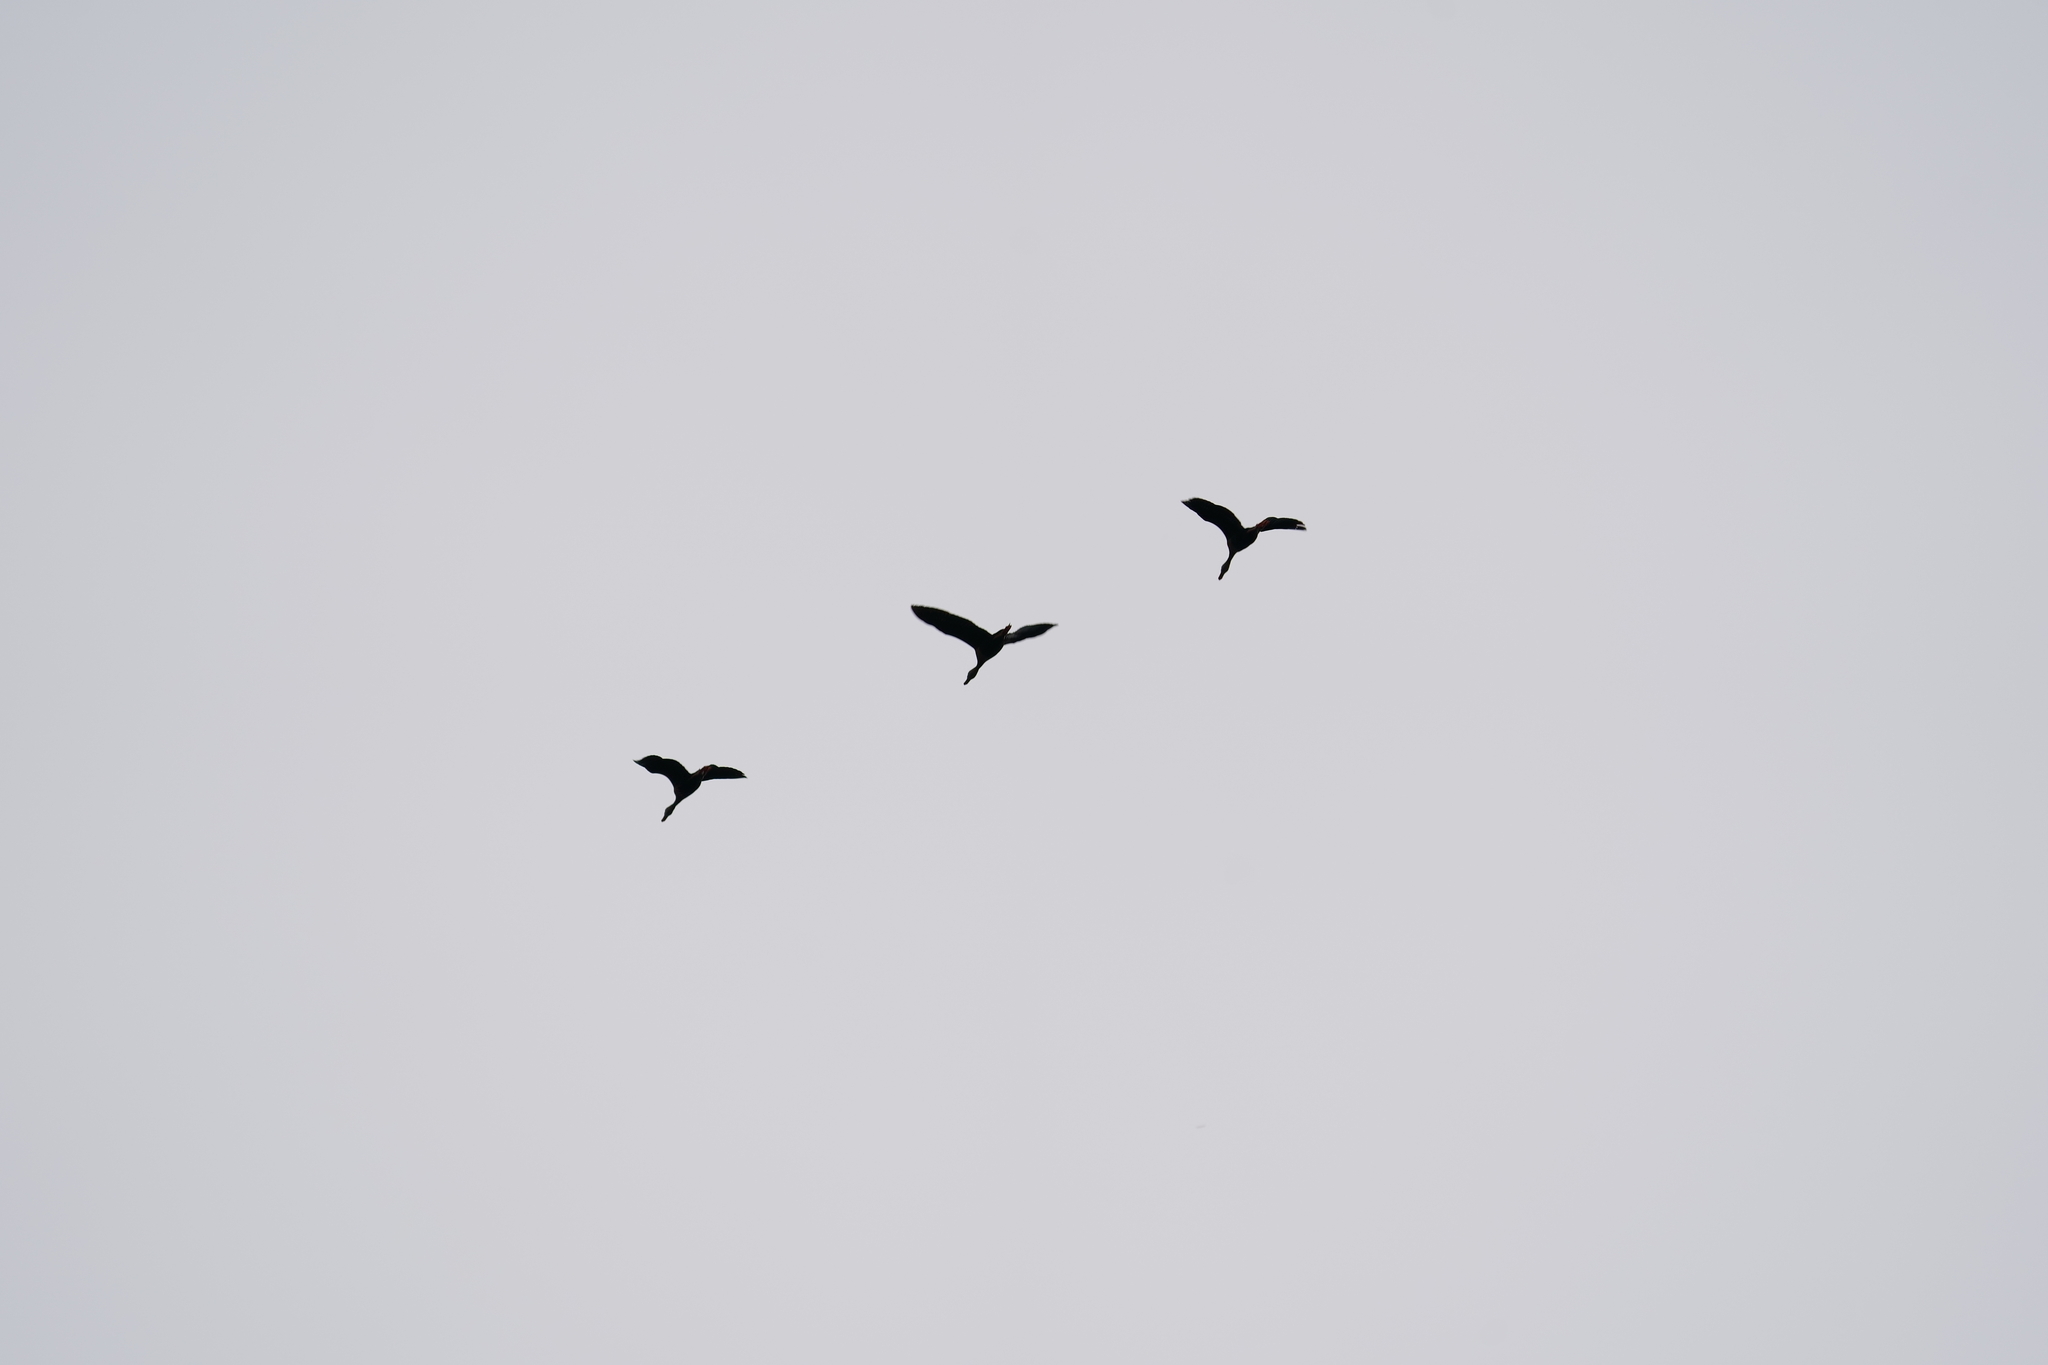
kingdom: Animalia
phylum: Chordata
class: Aves
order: Anseriformes
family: Anatidae
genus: Dendrocygna
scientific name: Dendrocygna autumnalis
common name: Black-bellied whistling duck
